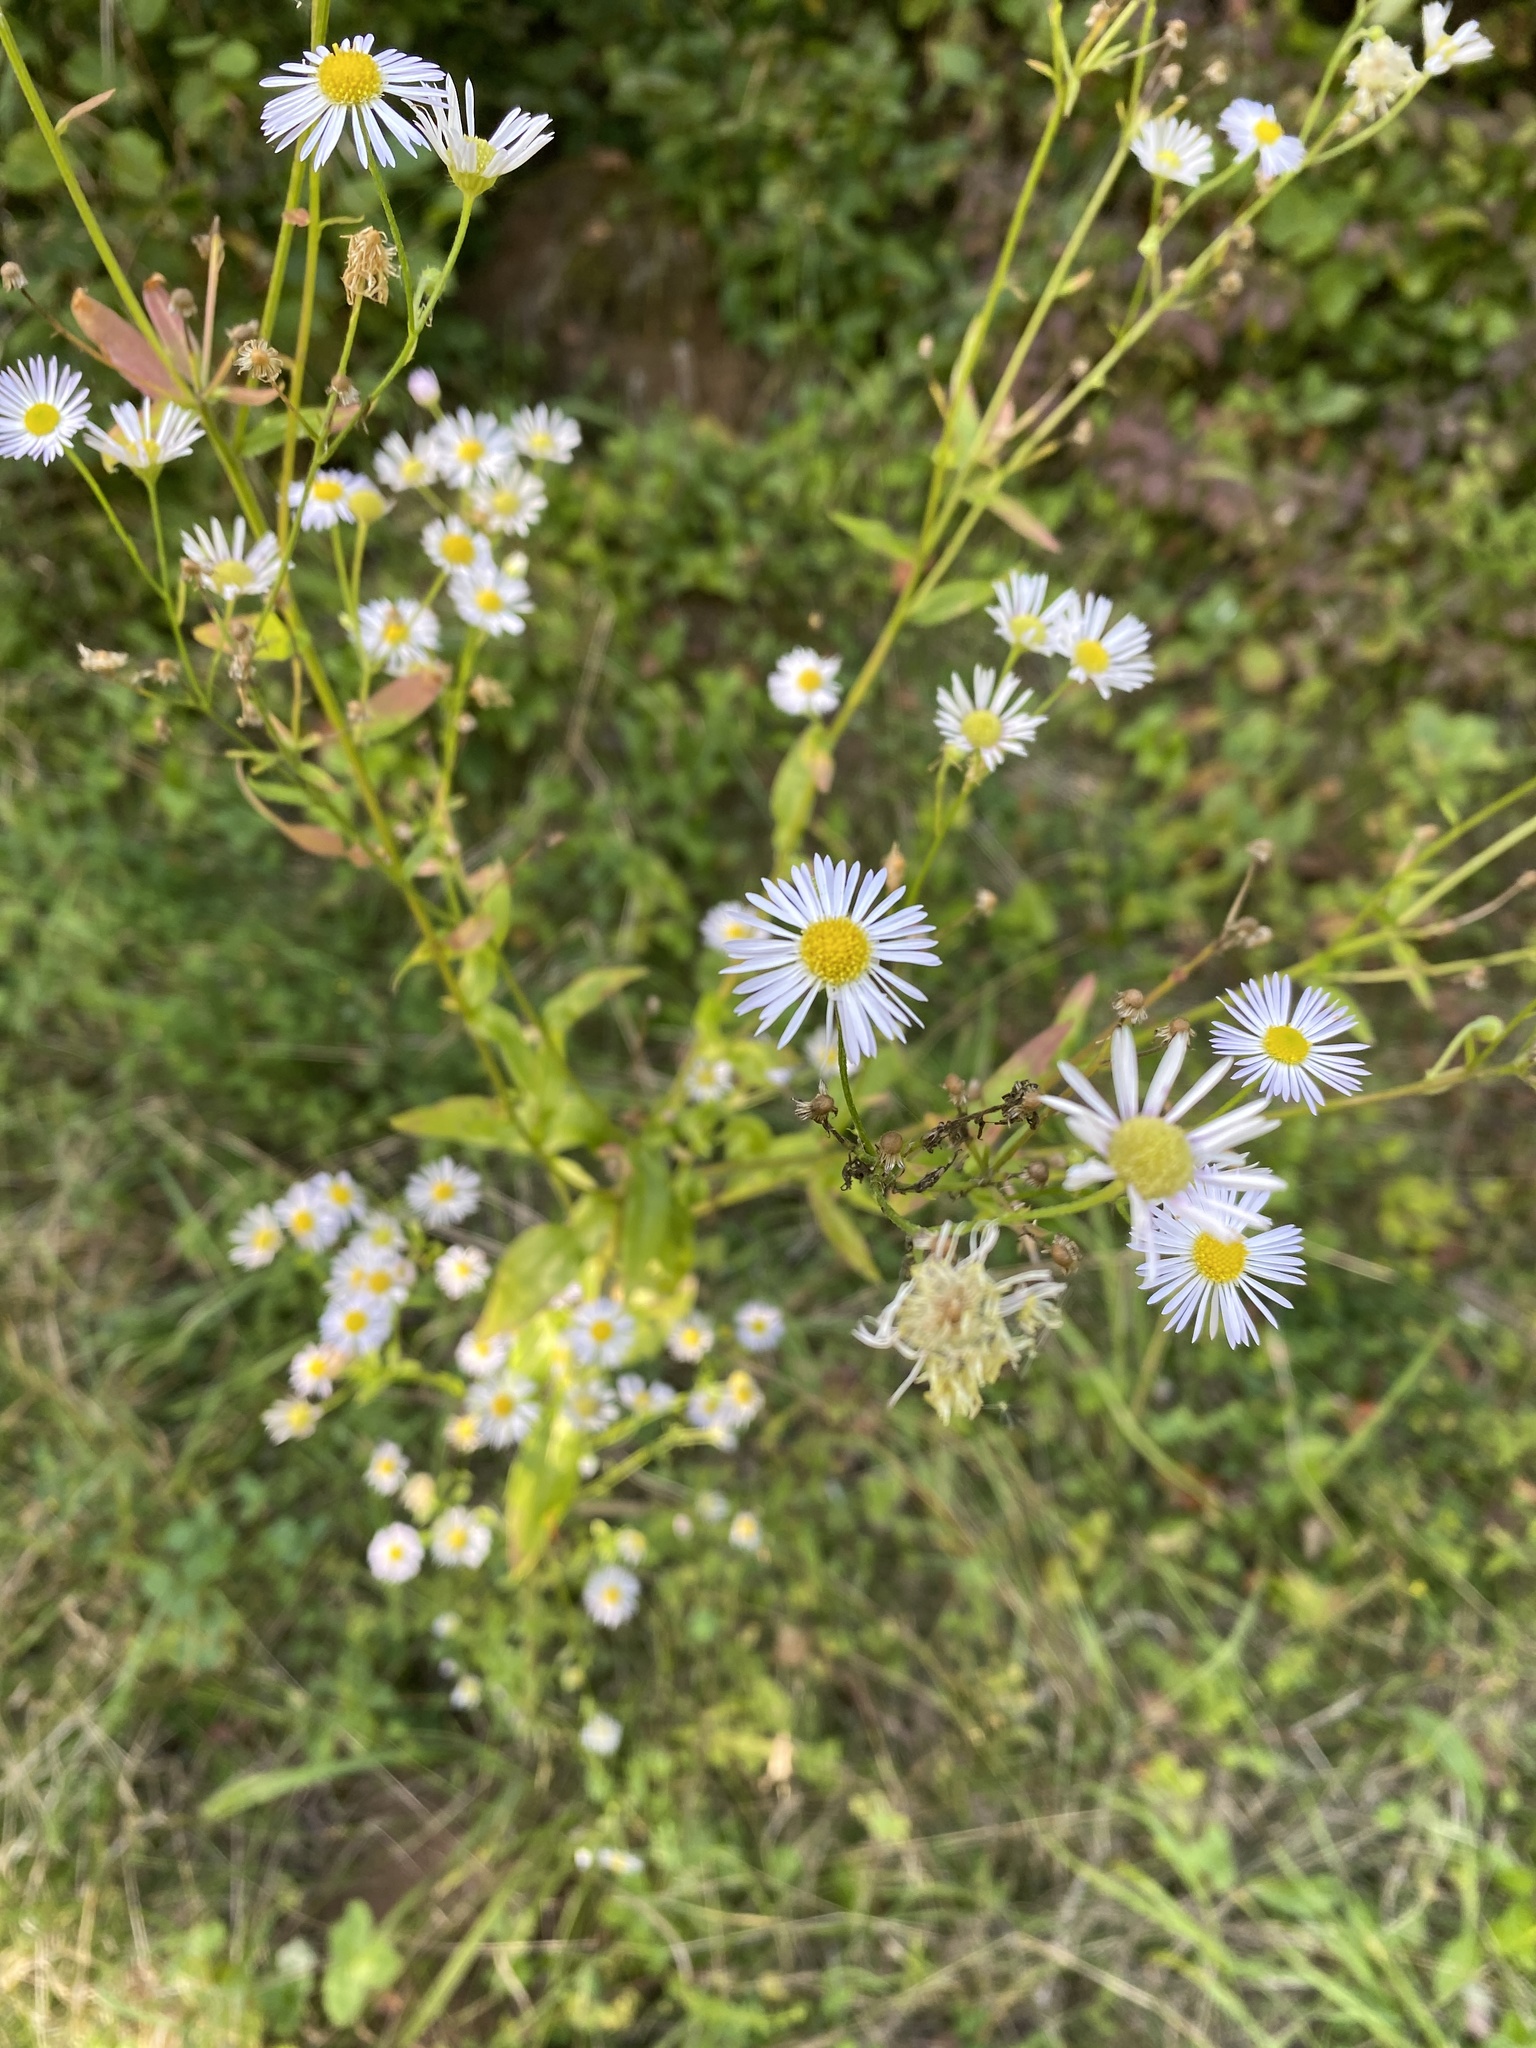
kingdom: Plantae
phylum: Tracheophyta
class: Magnoliopsida
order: Asterales
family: Asteraceae
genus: Erigeron
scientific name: Erigeron annuus
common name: Tall fleabane
